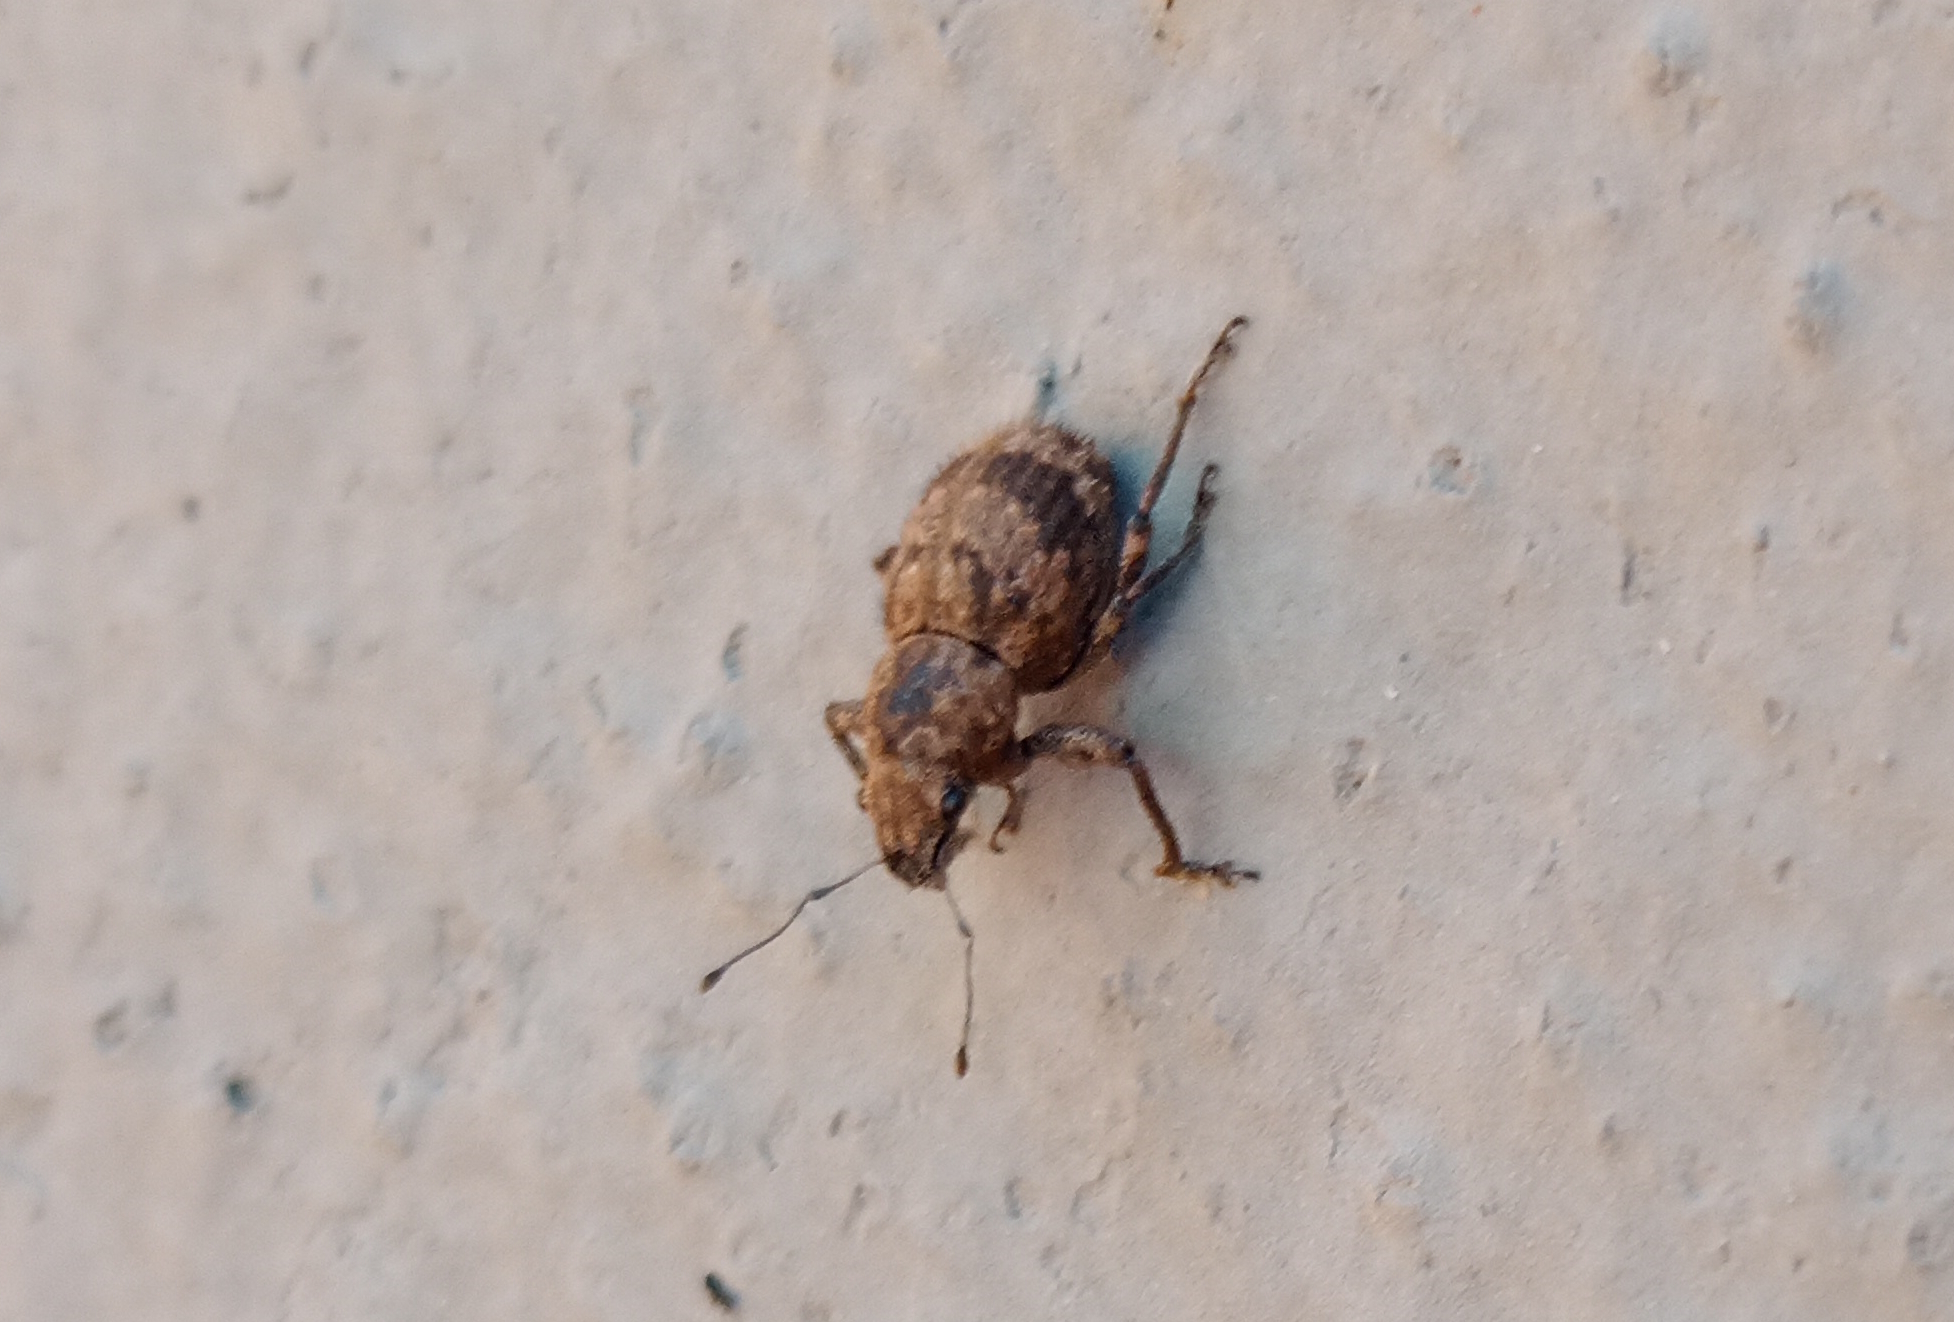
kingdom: Animalia
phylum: Arthropoda
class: Insecta
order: Coleoptera
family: Curculionidae
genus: Pantomorus
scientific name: Pantomorus
